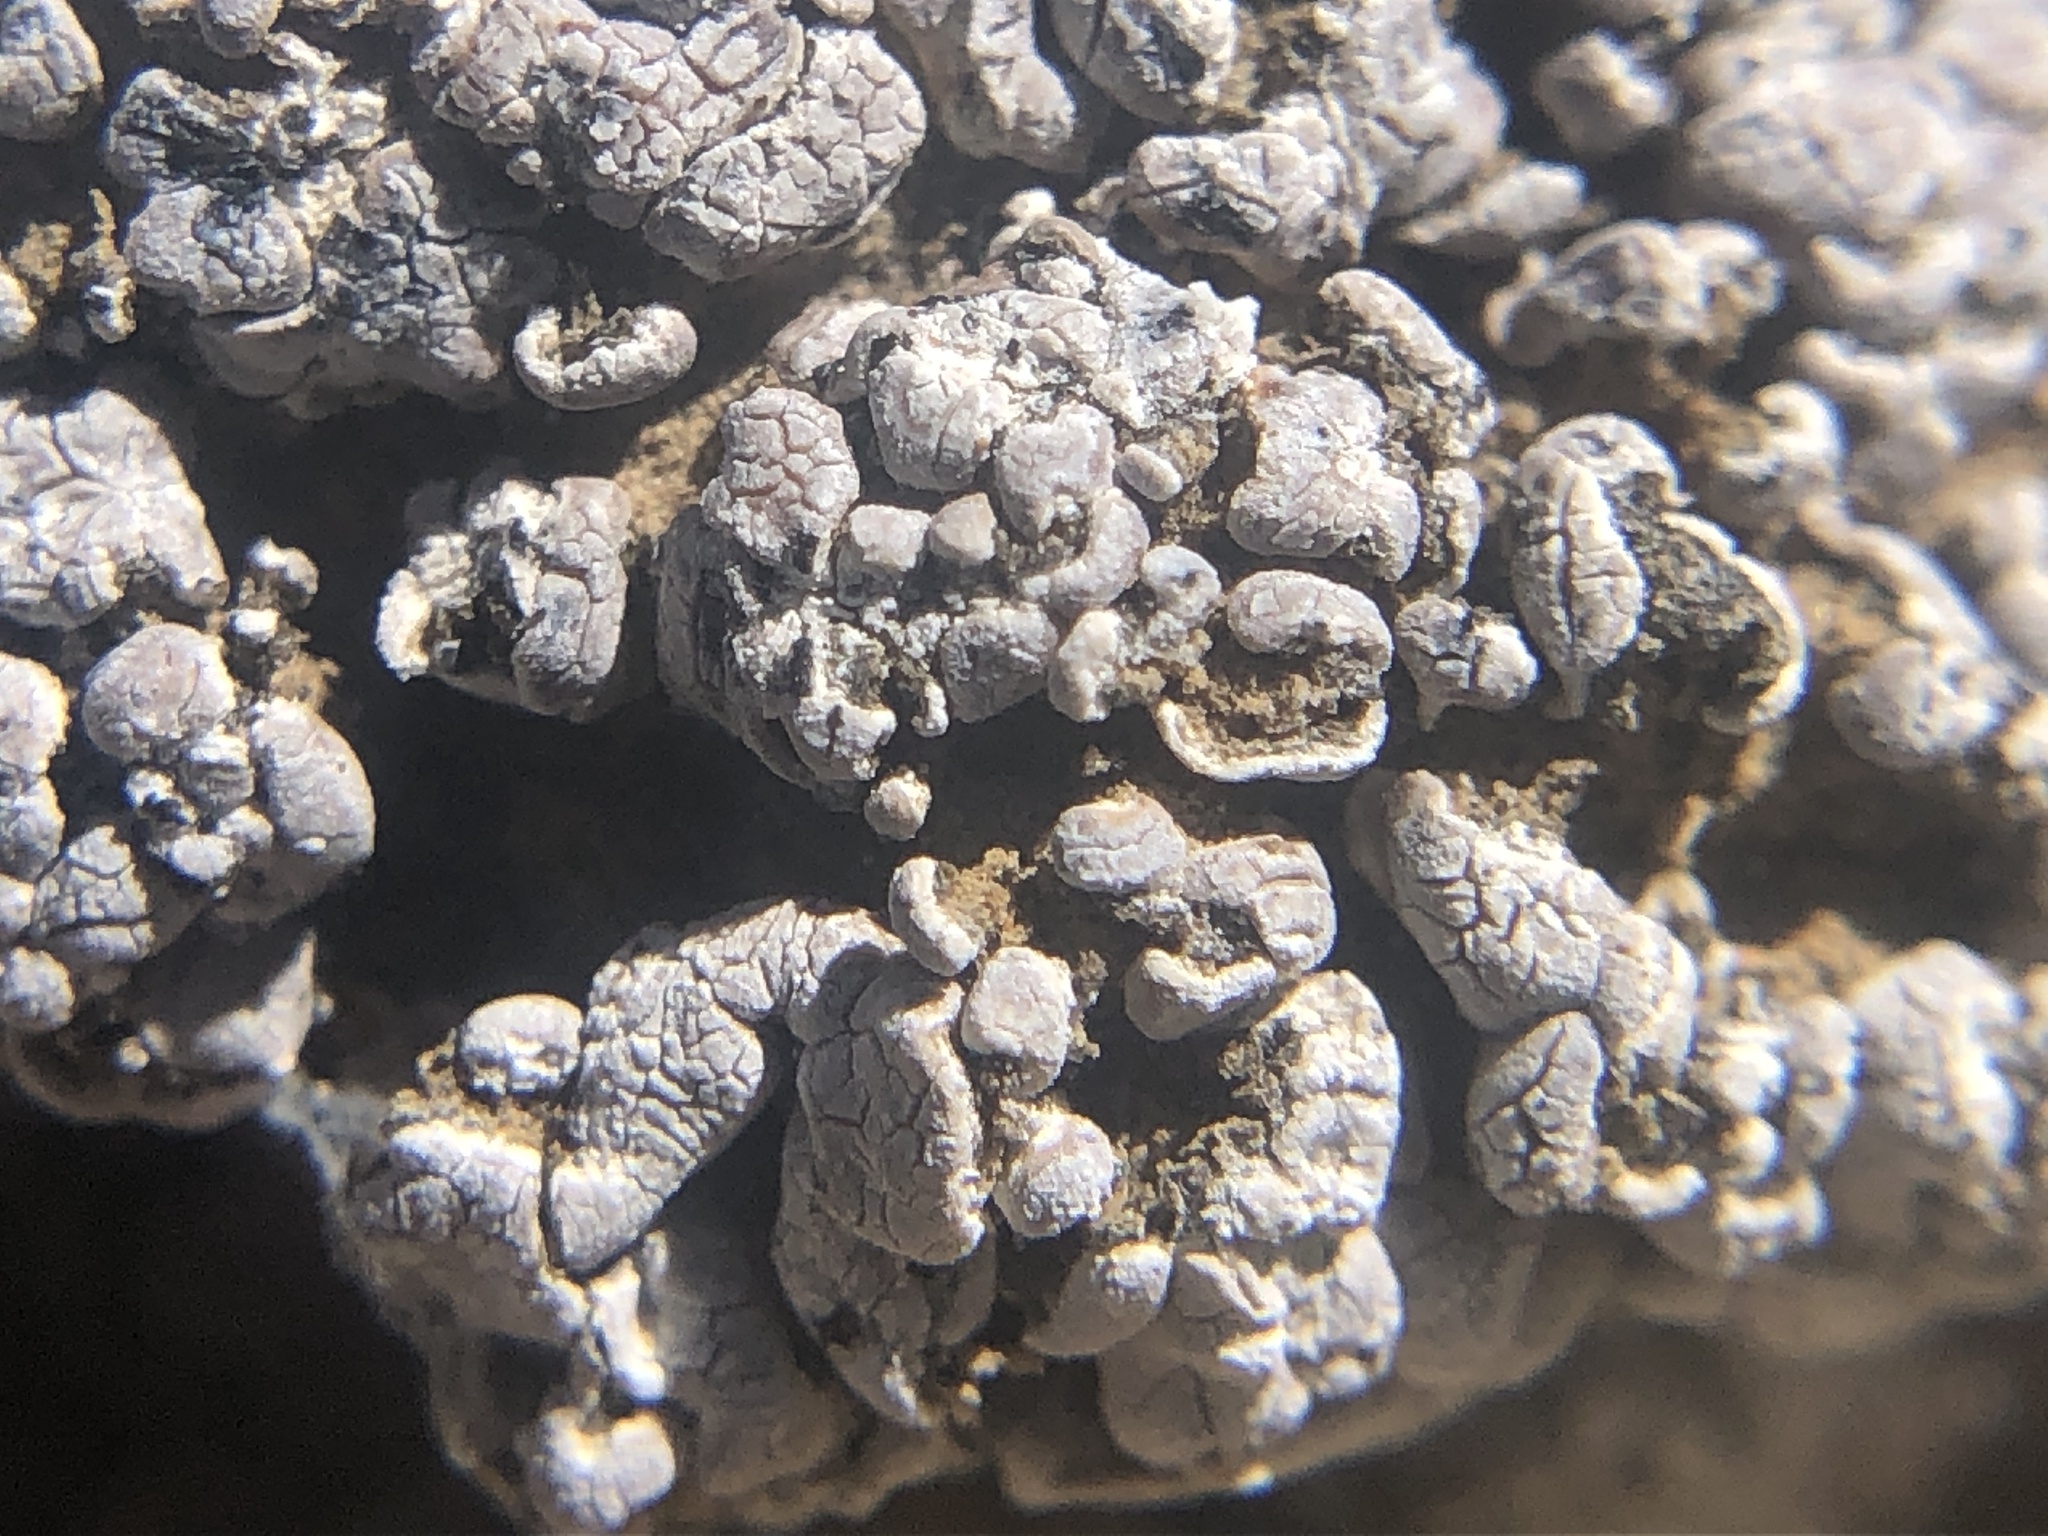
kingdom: Fungi
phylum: Ascomycota
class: Lecanoromycetes
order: Lecanorales
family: Psoraceae
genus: Psora
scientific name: Psora cerebriformis
